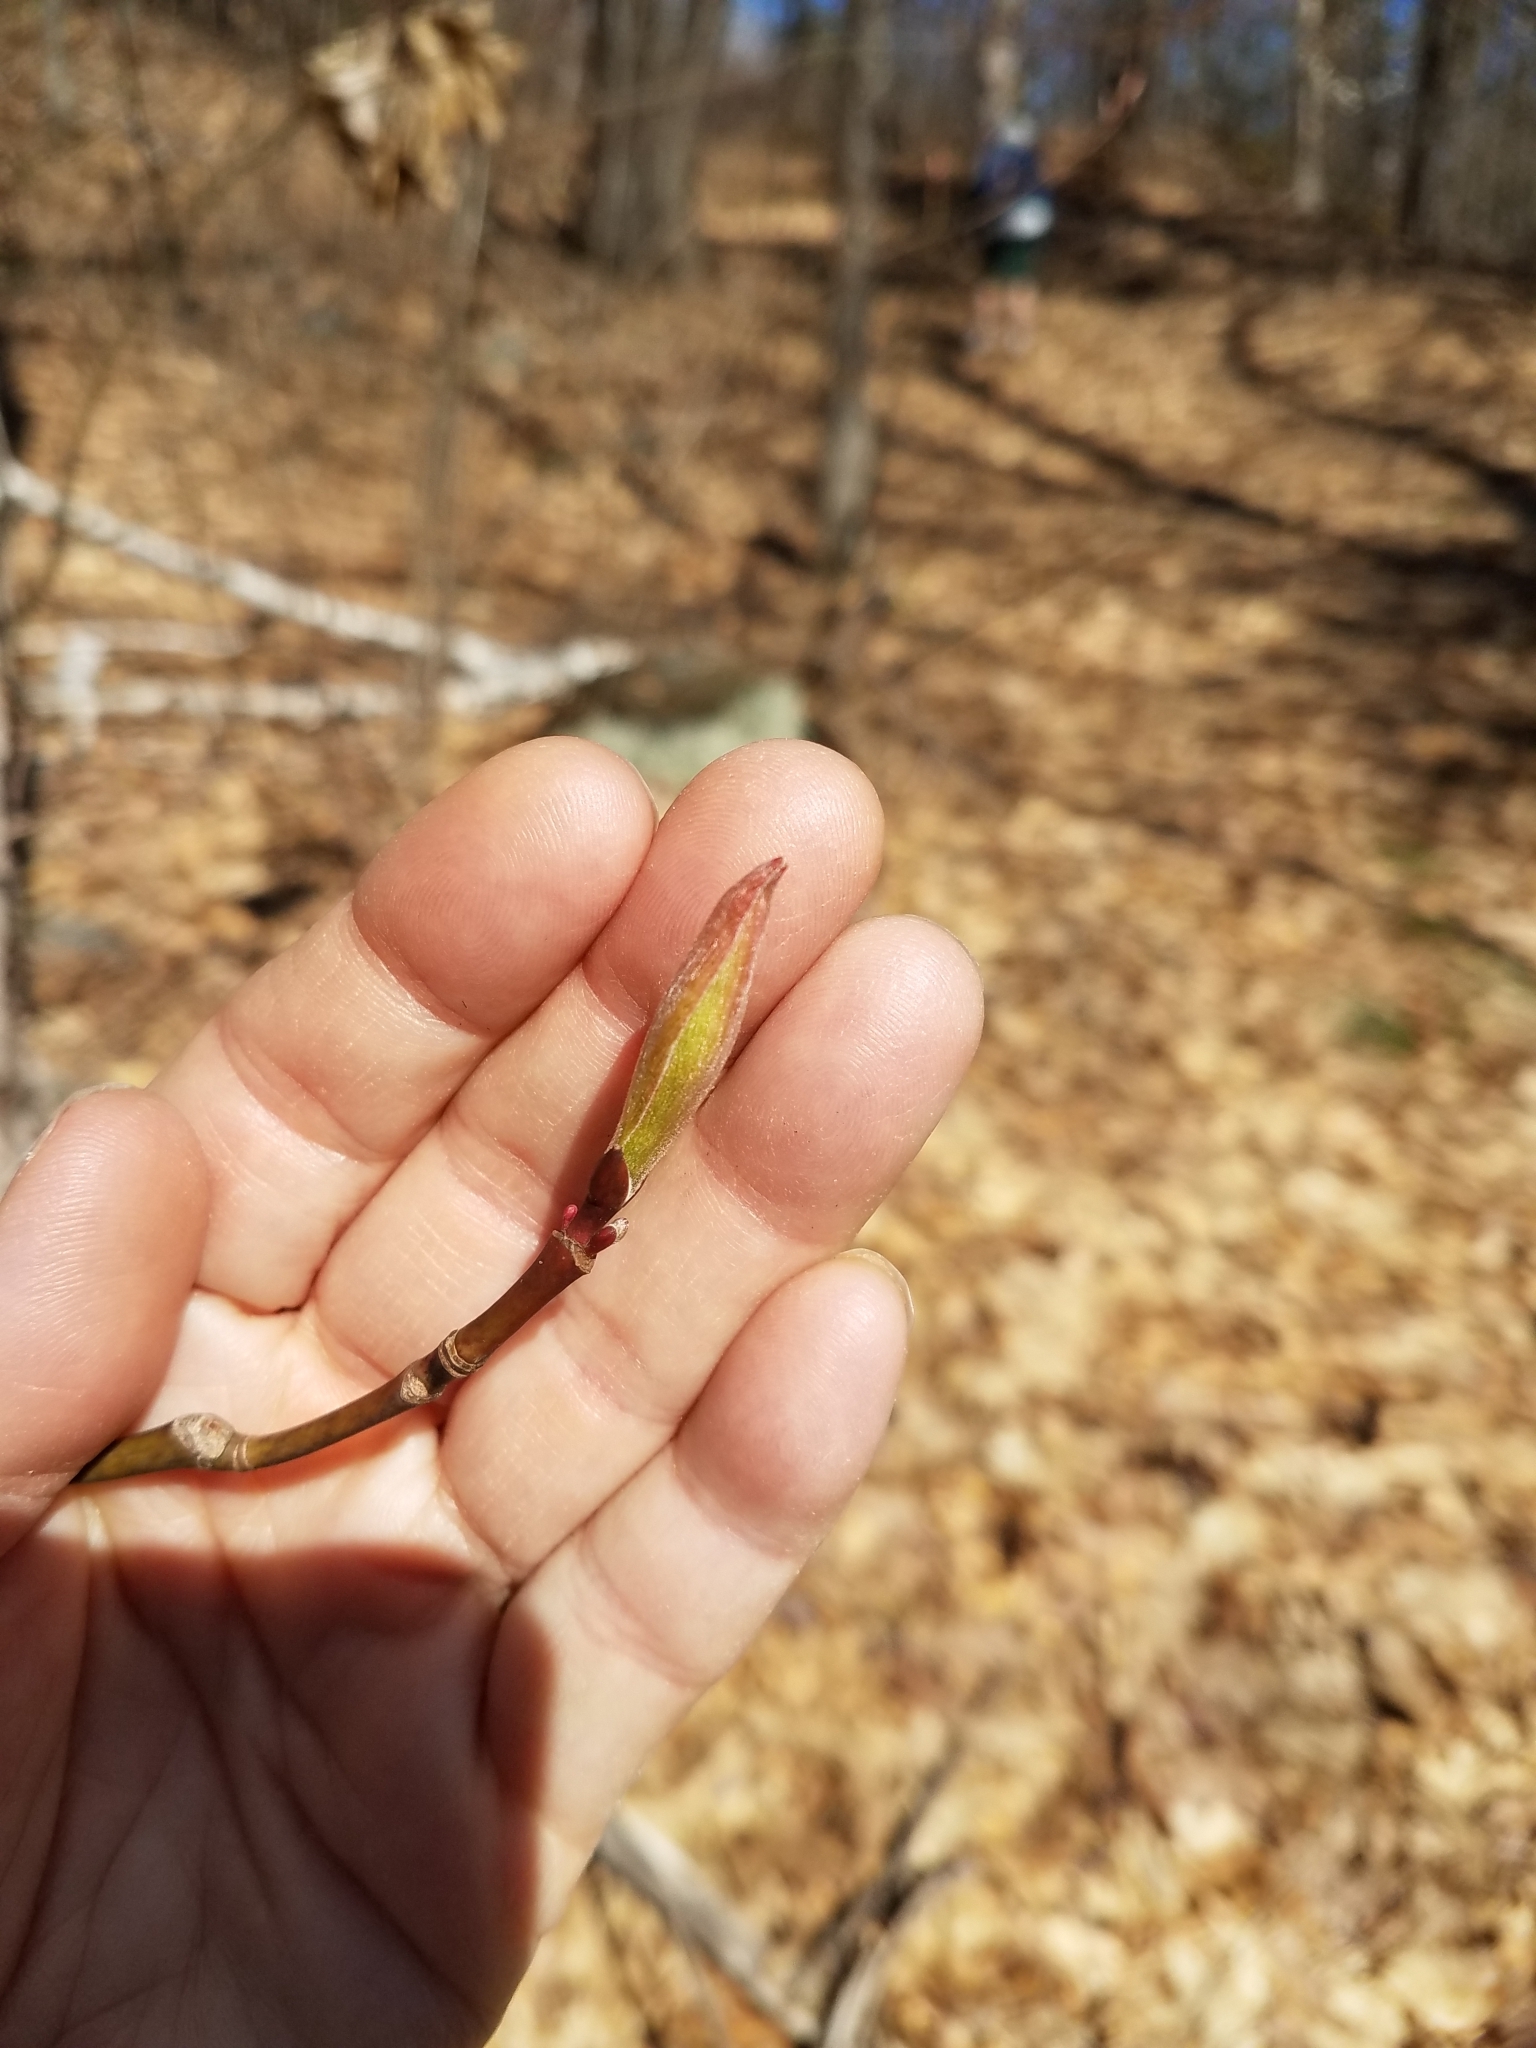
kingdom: Plantae
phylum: Tracheophyta
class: Magnoliopsida
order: Sapindales
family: Sapindaceae
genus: Acer
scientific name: Acer pensylvanicum
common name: Moosewood
